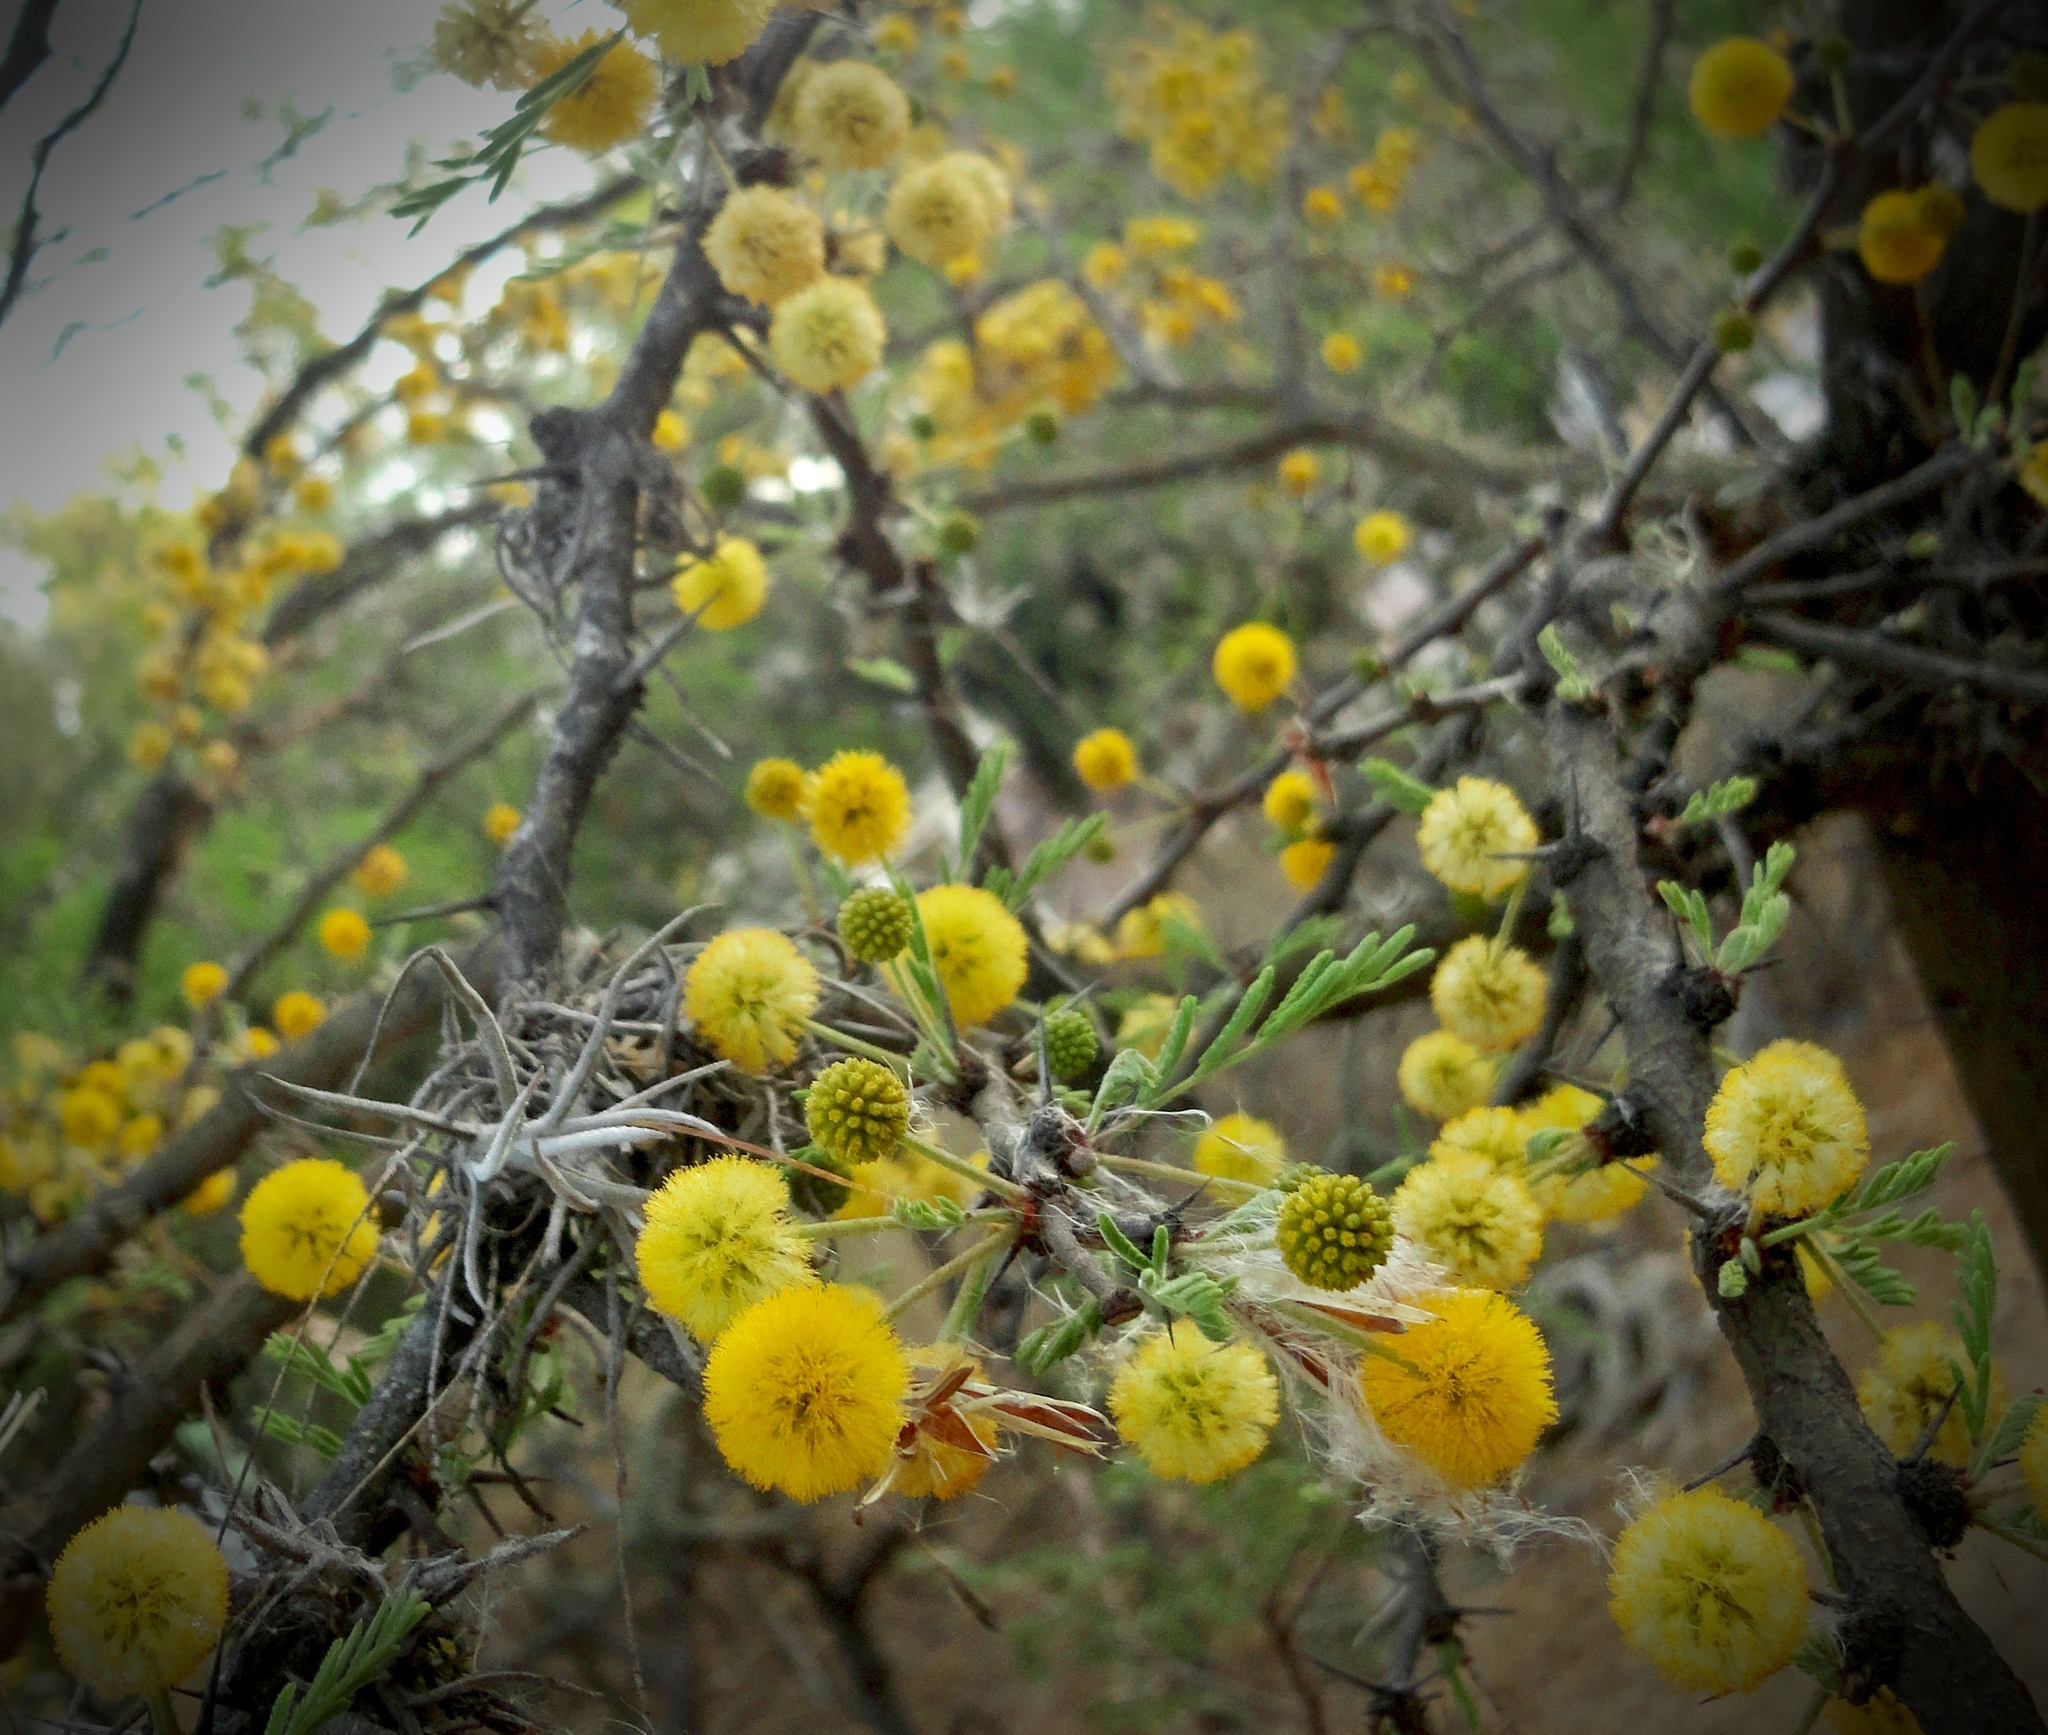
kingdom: Plantae
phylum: Tracheophyta
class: Magnoliopsida
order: Fabales
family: Fabaceae
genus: Vachellia
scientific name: Vachellia farnesiana
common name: Sweet acacia
